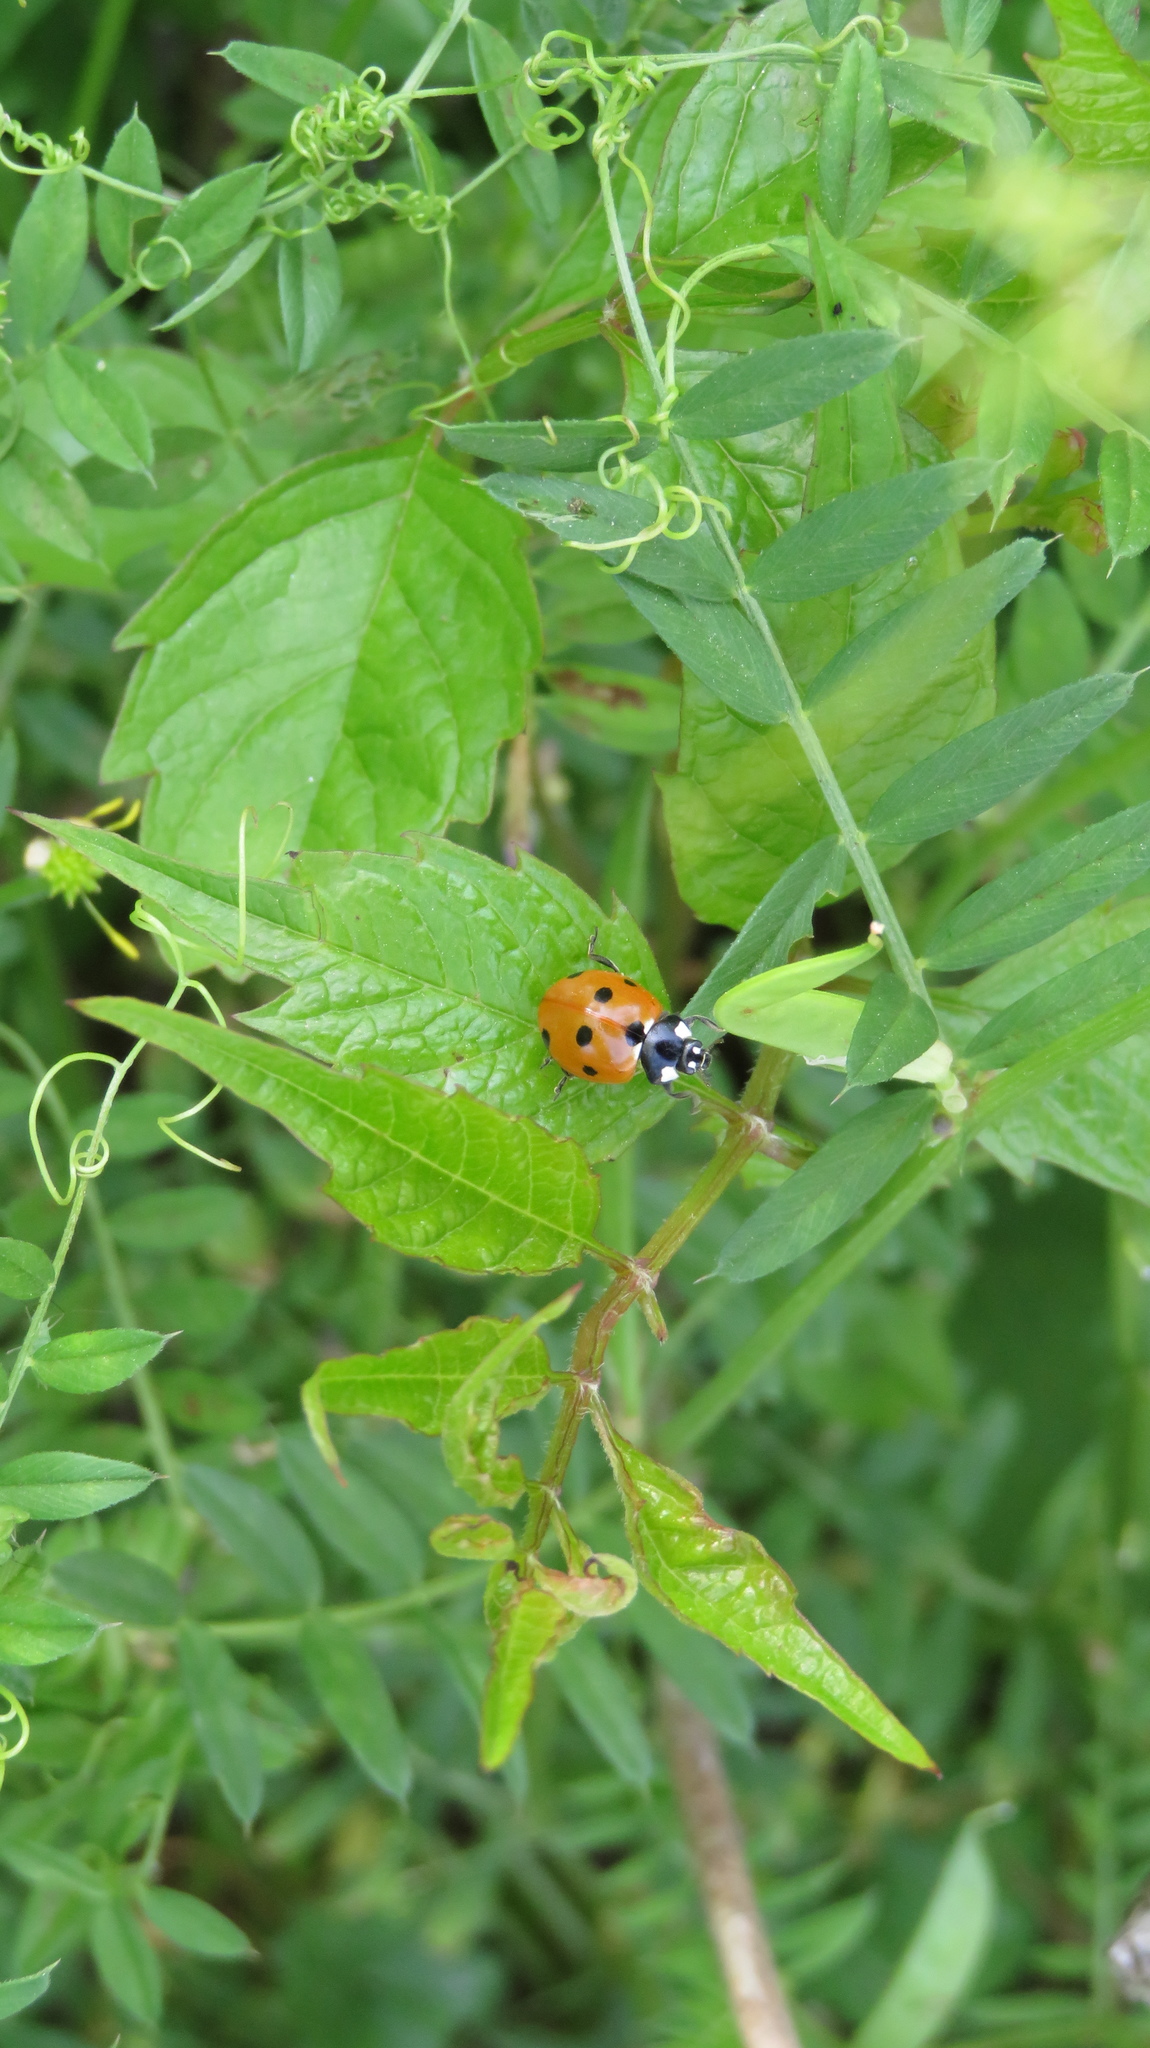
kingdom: Animalia
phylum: Arthropoda
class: Insecta
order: Coleoptera
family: Coccinellidae
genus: Coccinella
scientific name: Coccinella septempunctata
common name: Sevenspotted lady beetle
